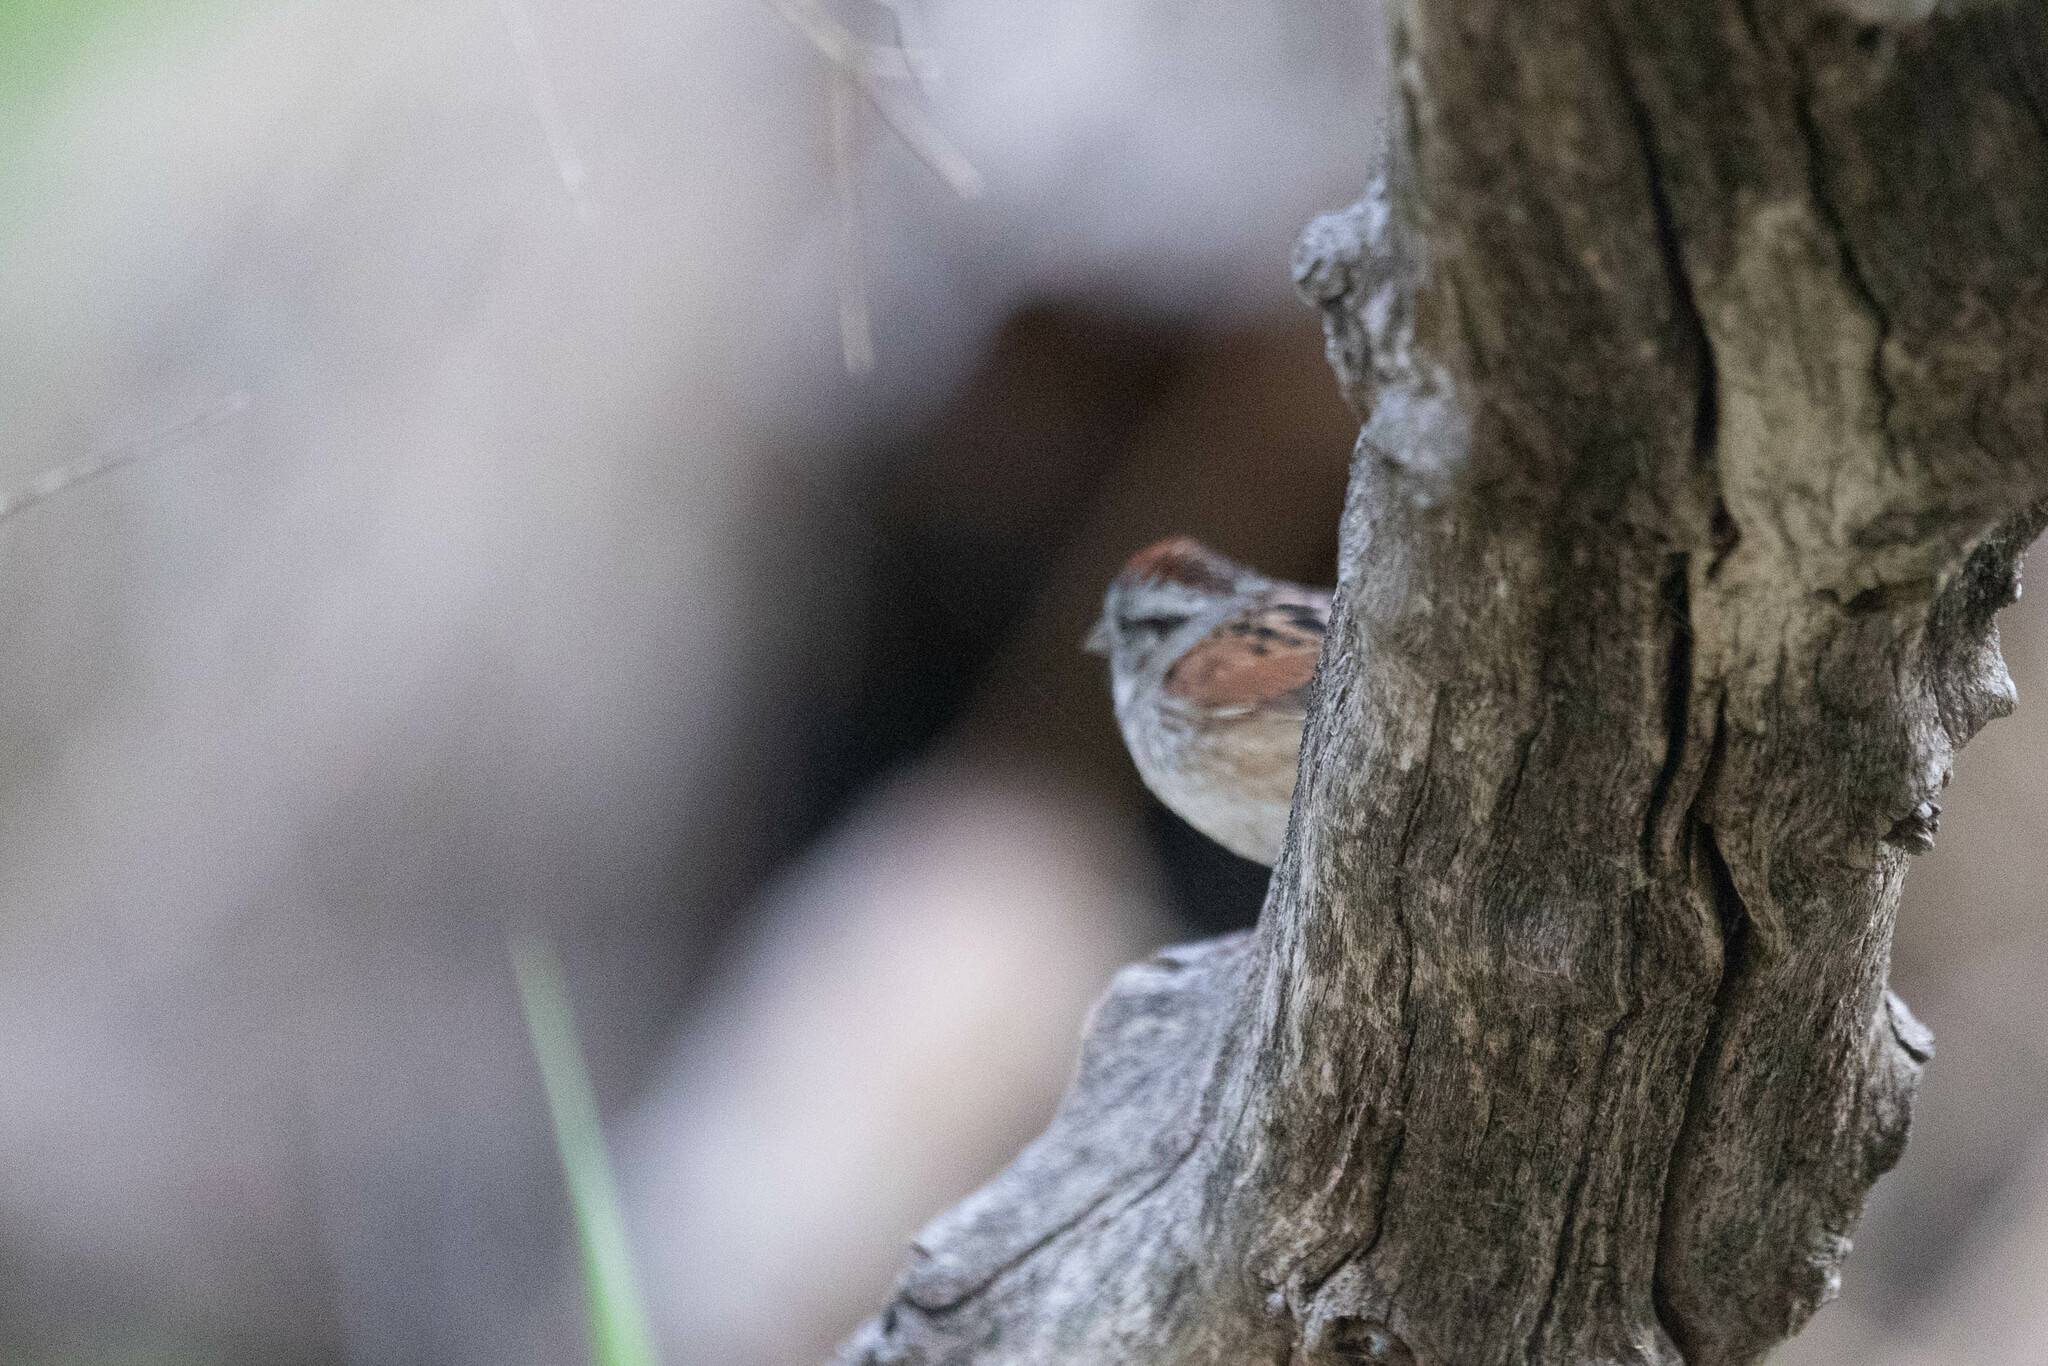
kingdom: Animalia
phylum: Chordata
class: Aves
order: Passeriformes
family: Passerellidae
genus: Melospiza
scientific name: Melospiza georgiana
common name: Swamp sparrow
